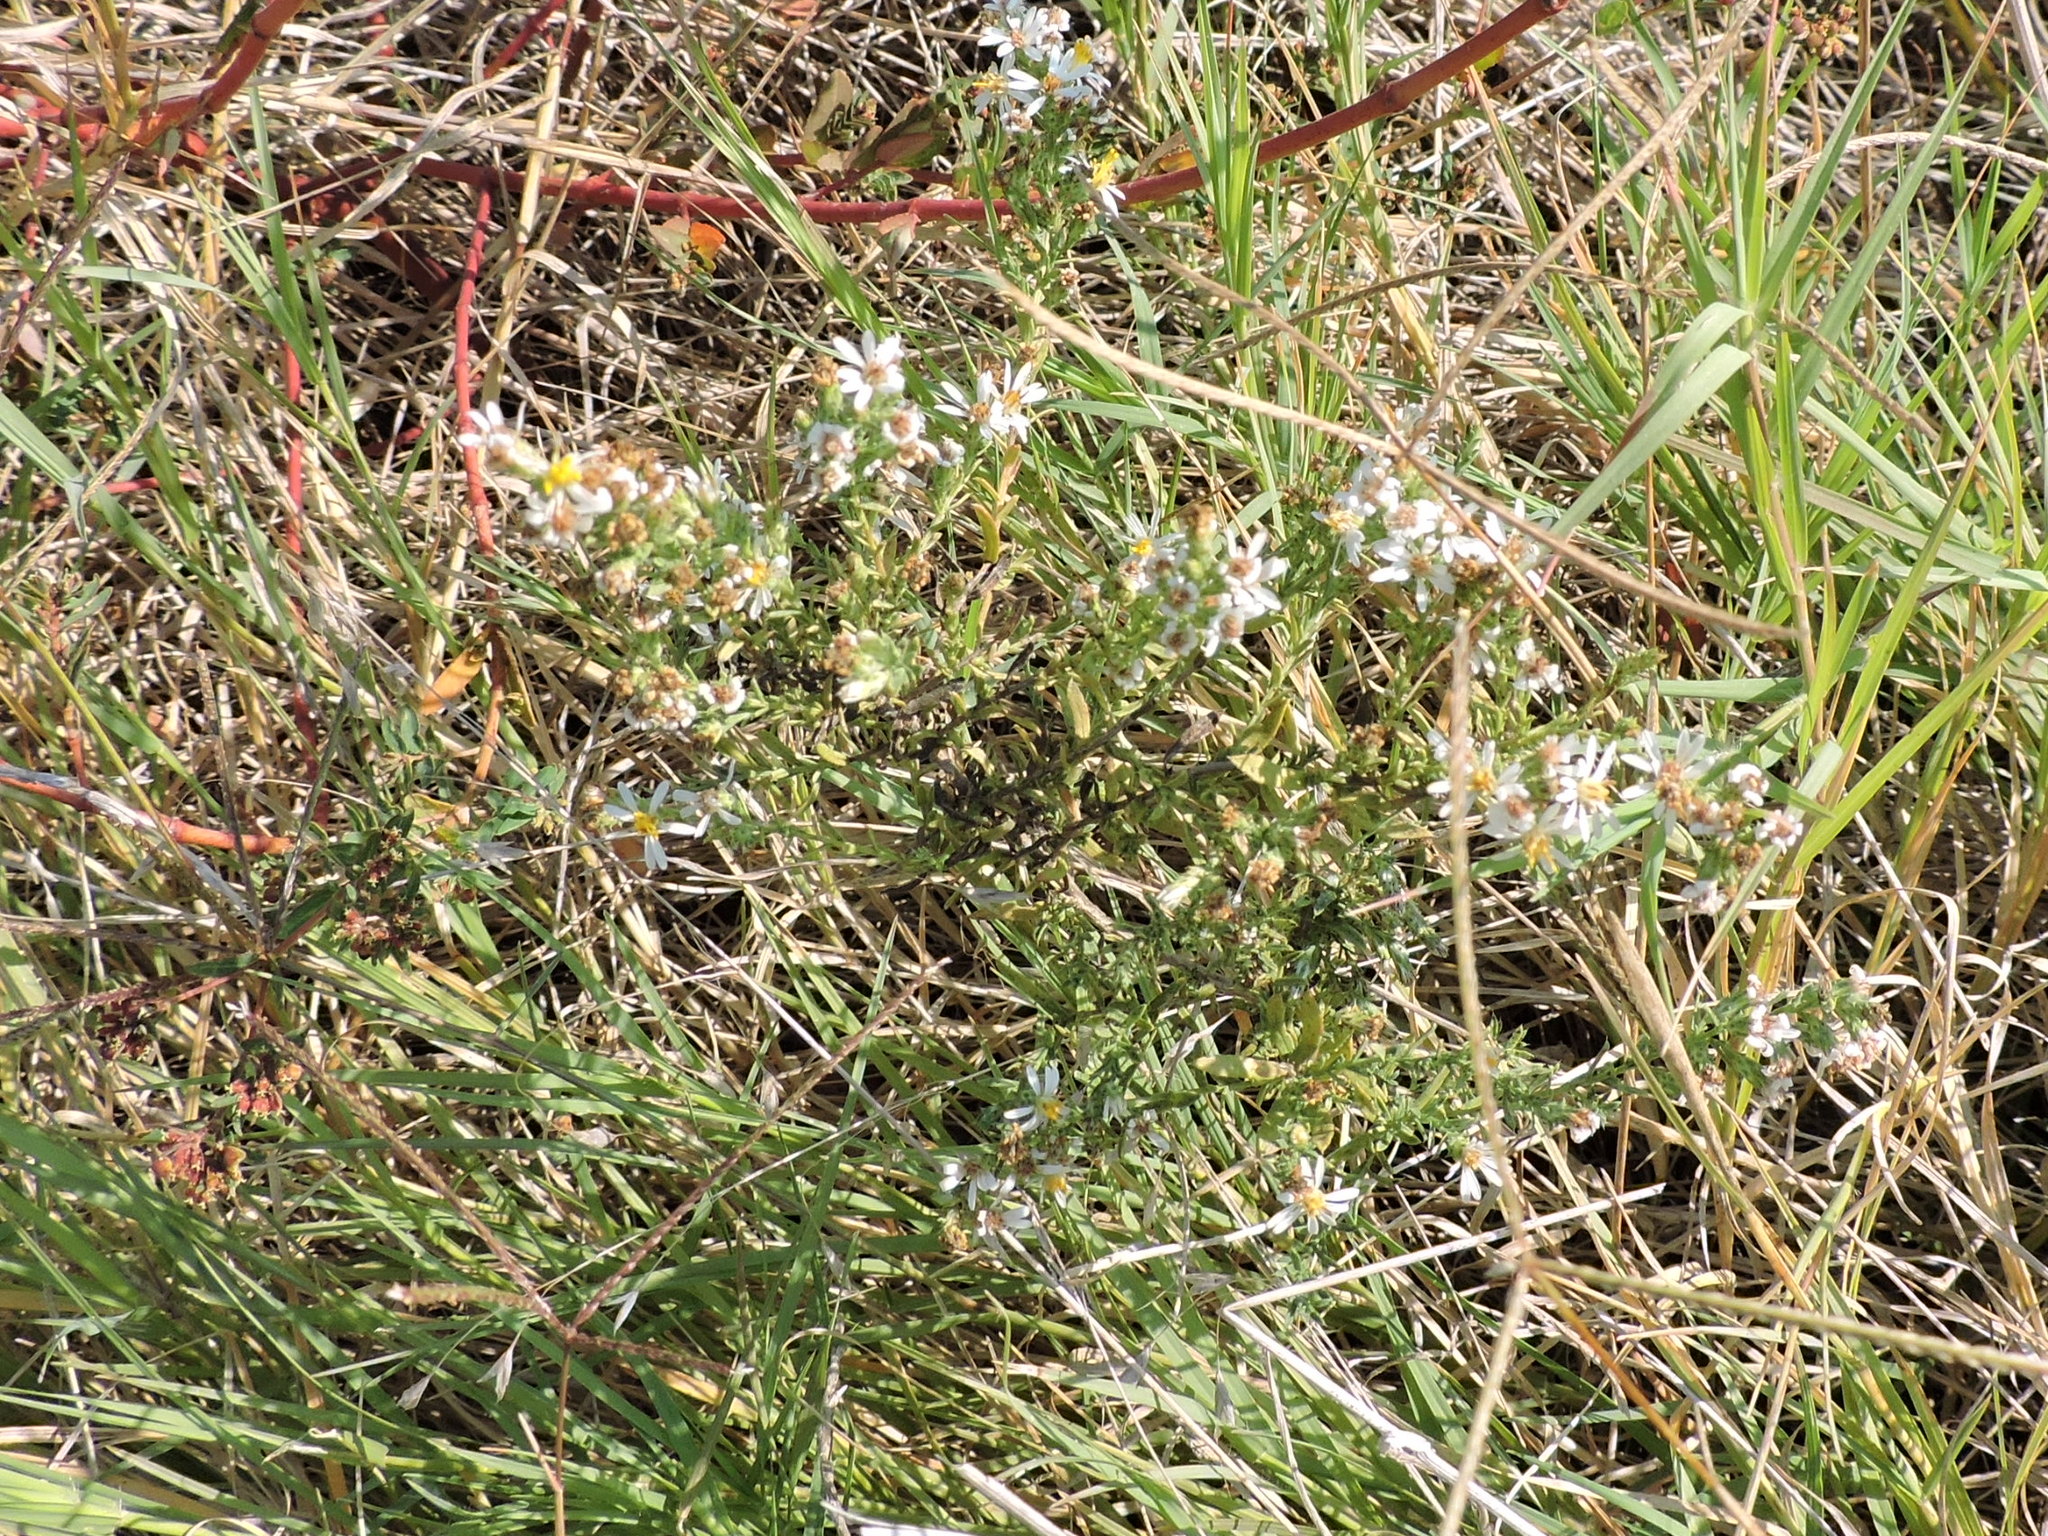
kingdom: Plantae
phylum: Tracheophyta
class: Magnoliopsida
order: Asterales
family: Asteraceae
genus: Symphyotrichum
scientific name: Symphyotrichum ericoides
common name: Heath aster
